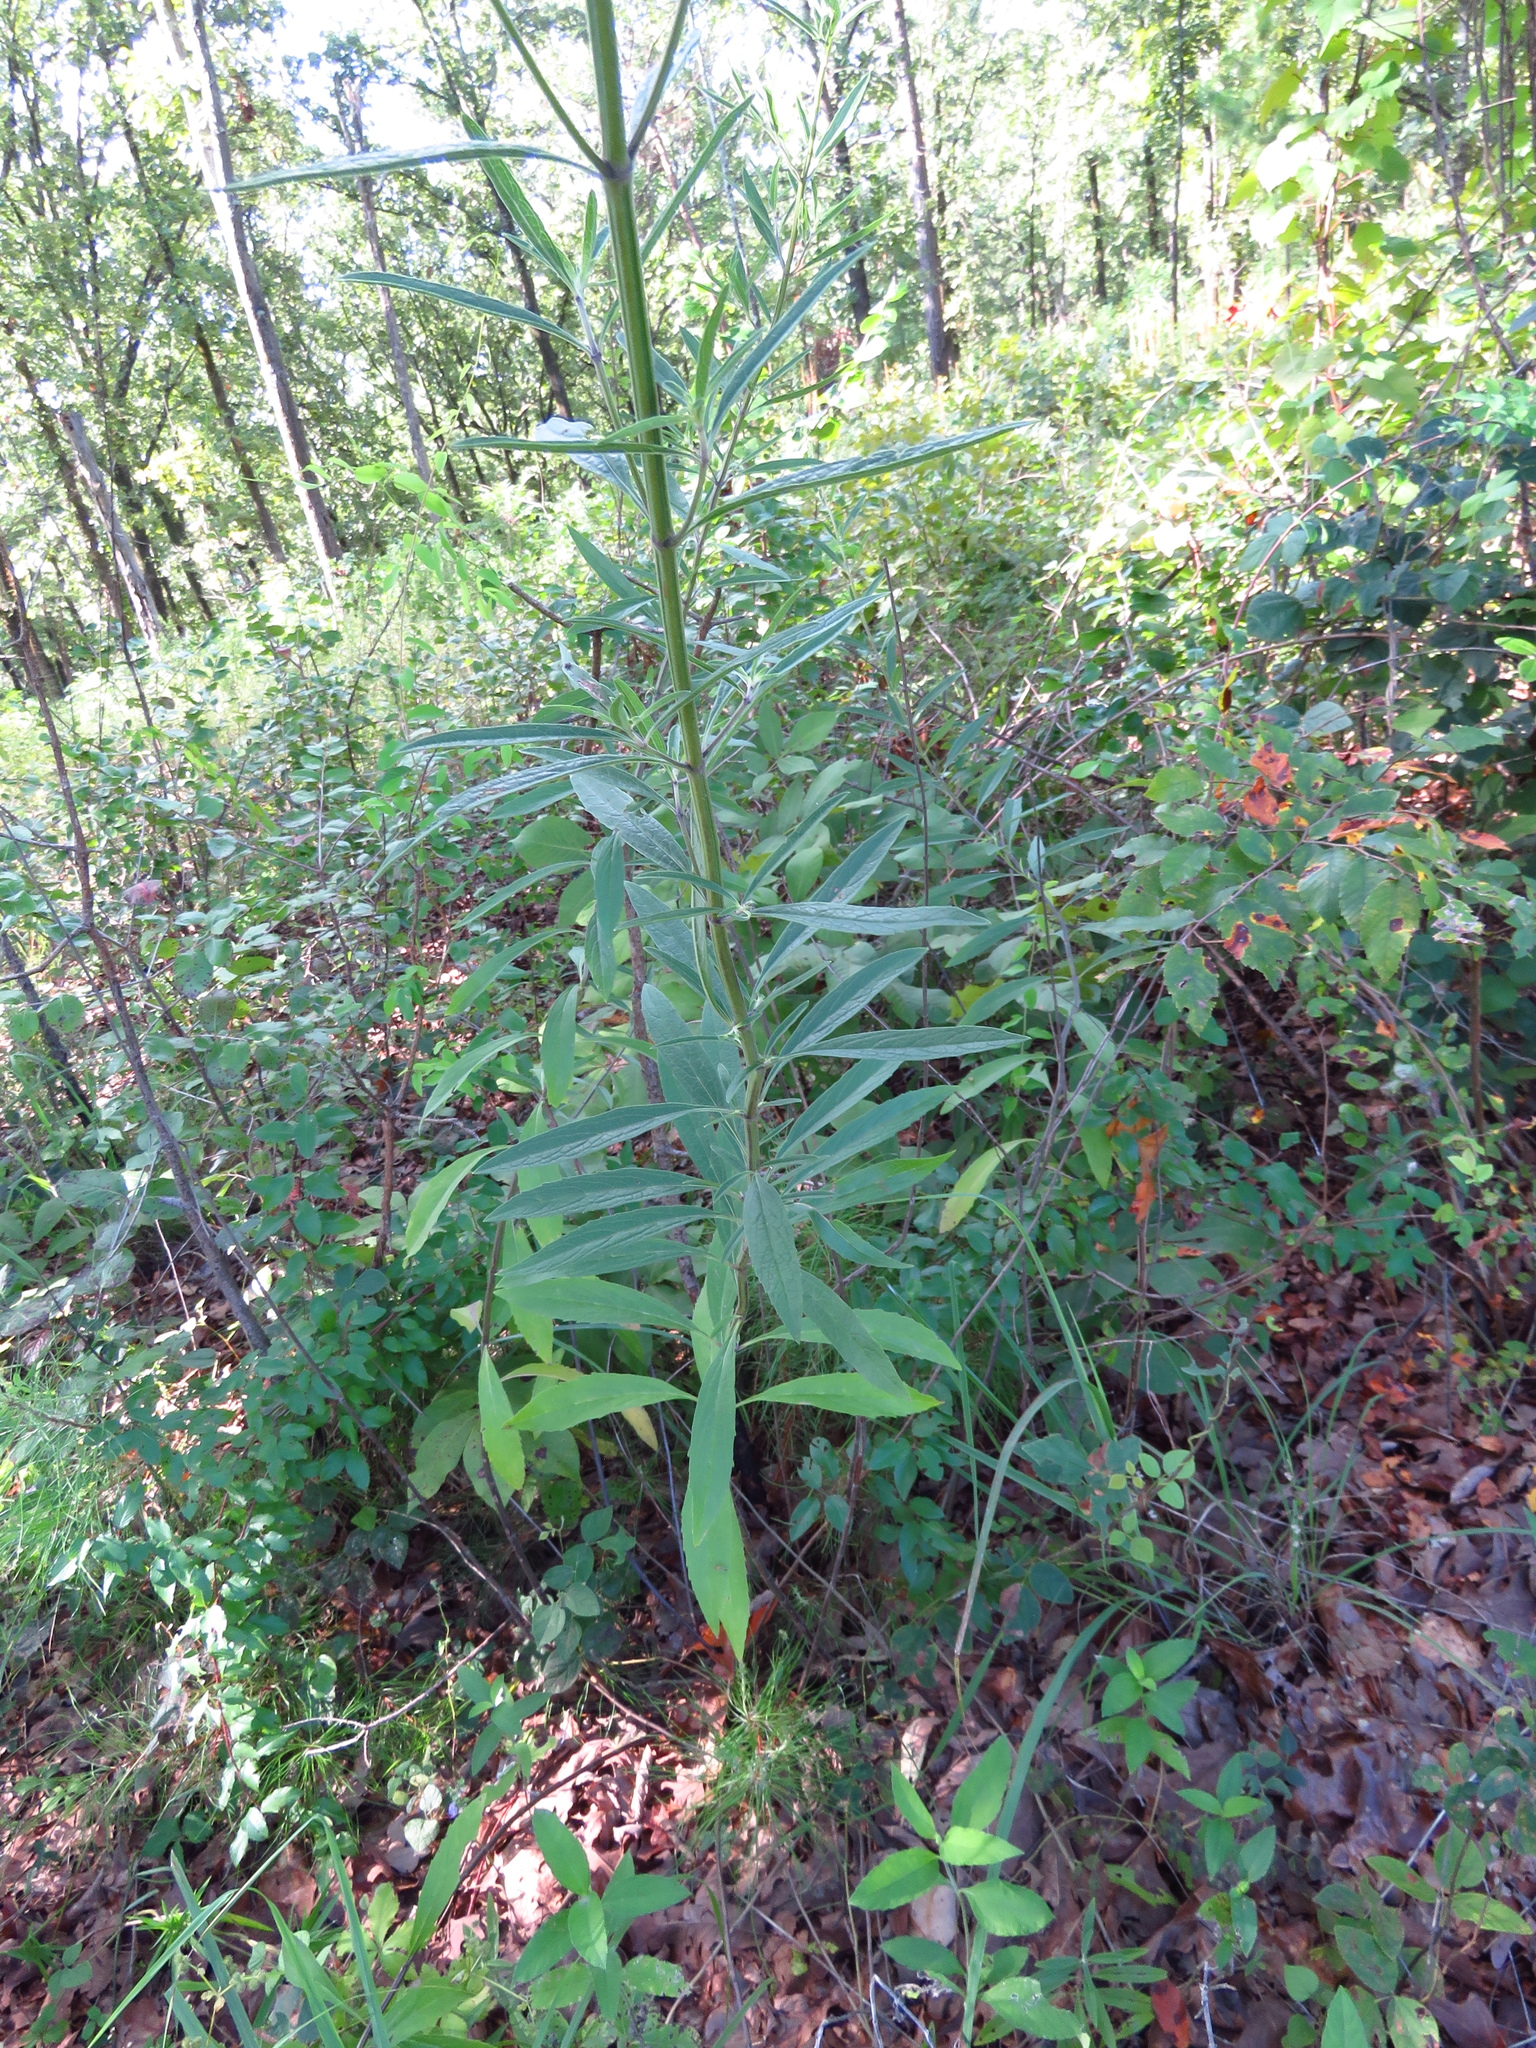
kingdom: Plantae
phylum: Tracheophyta
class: Magnoliopsida
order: Lamiales
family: Lamiaceae
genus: Salvia
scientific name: Salvia azurea
